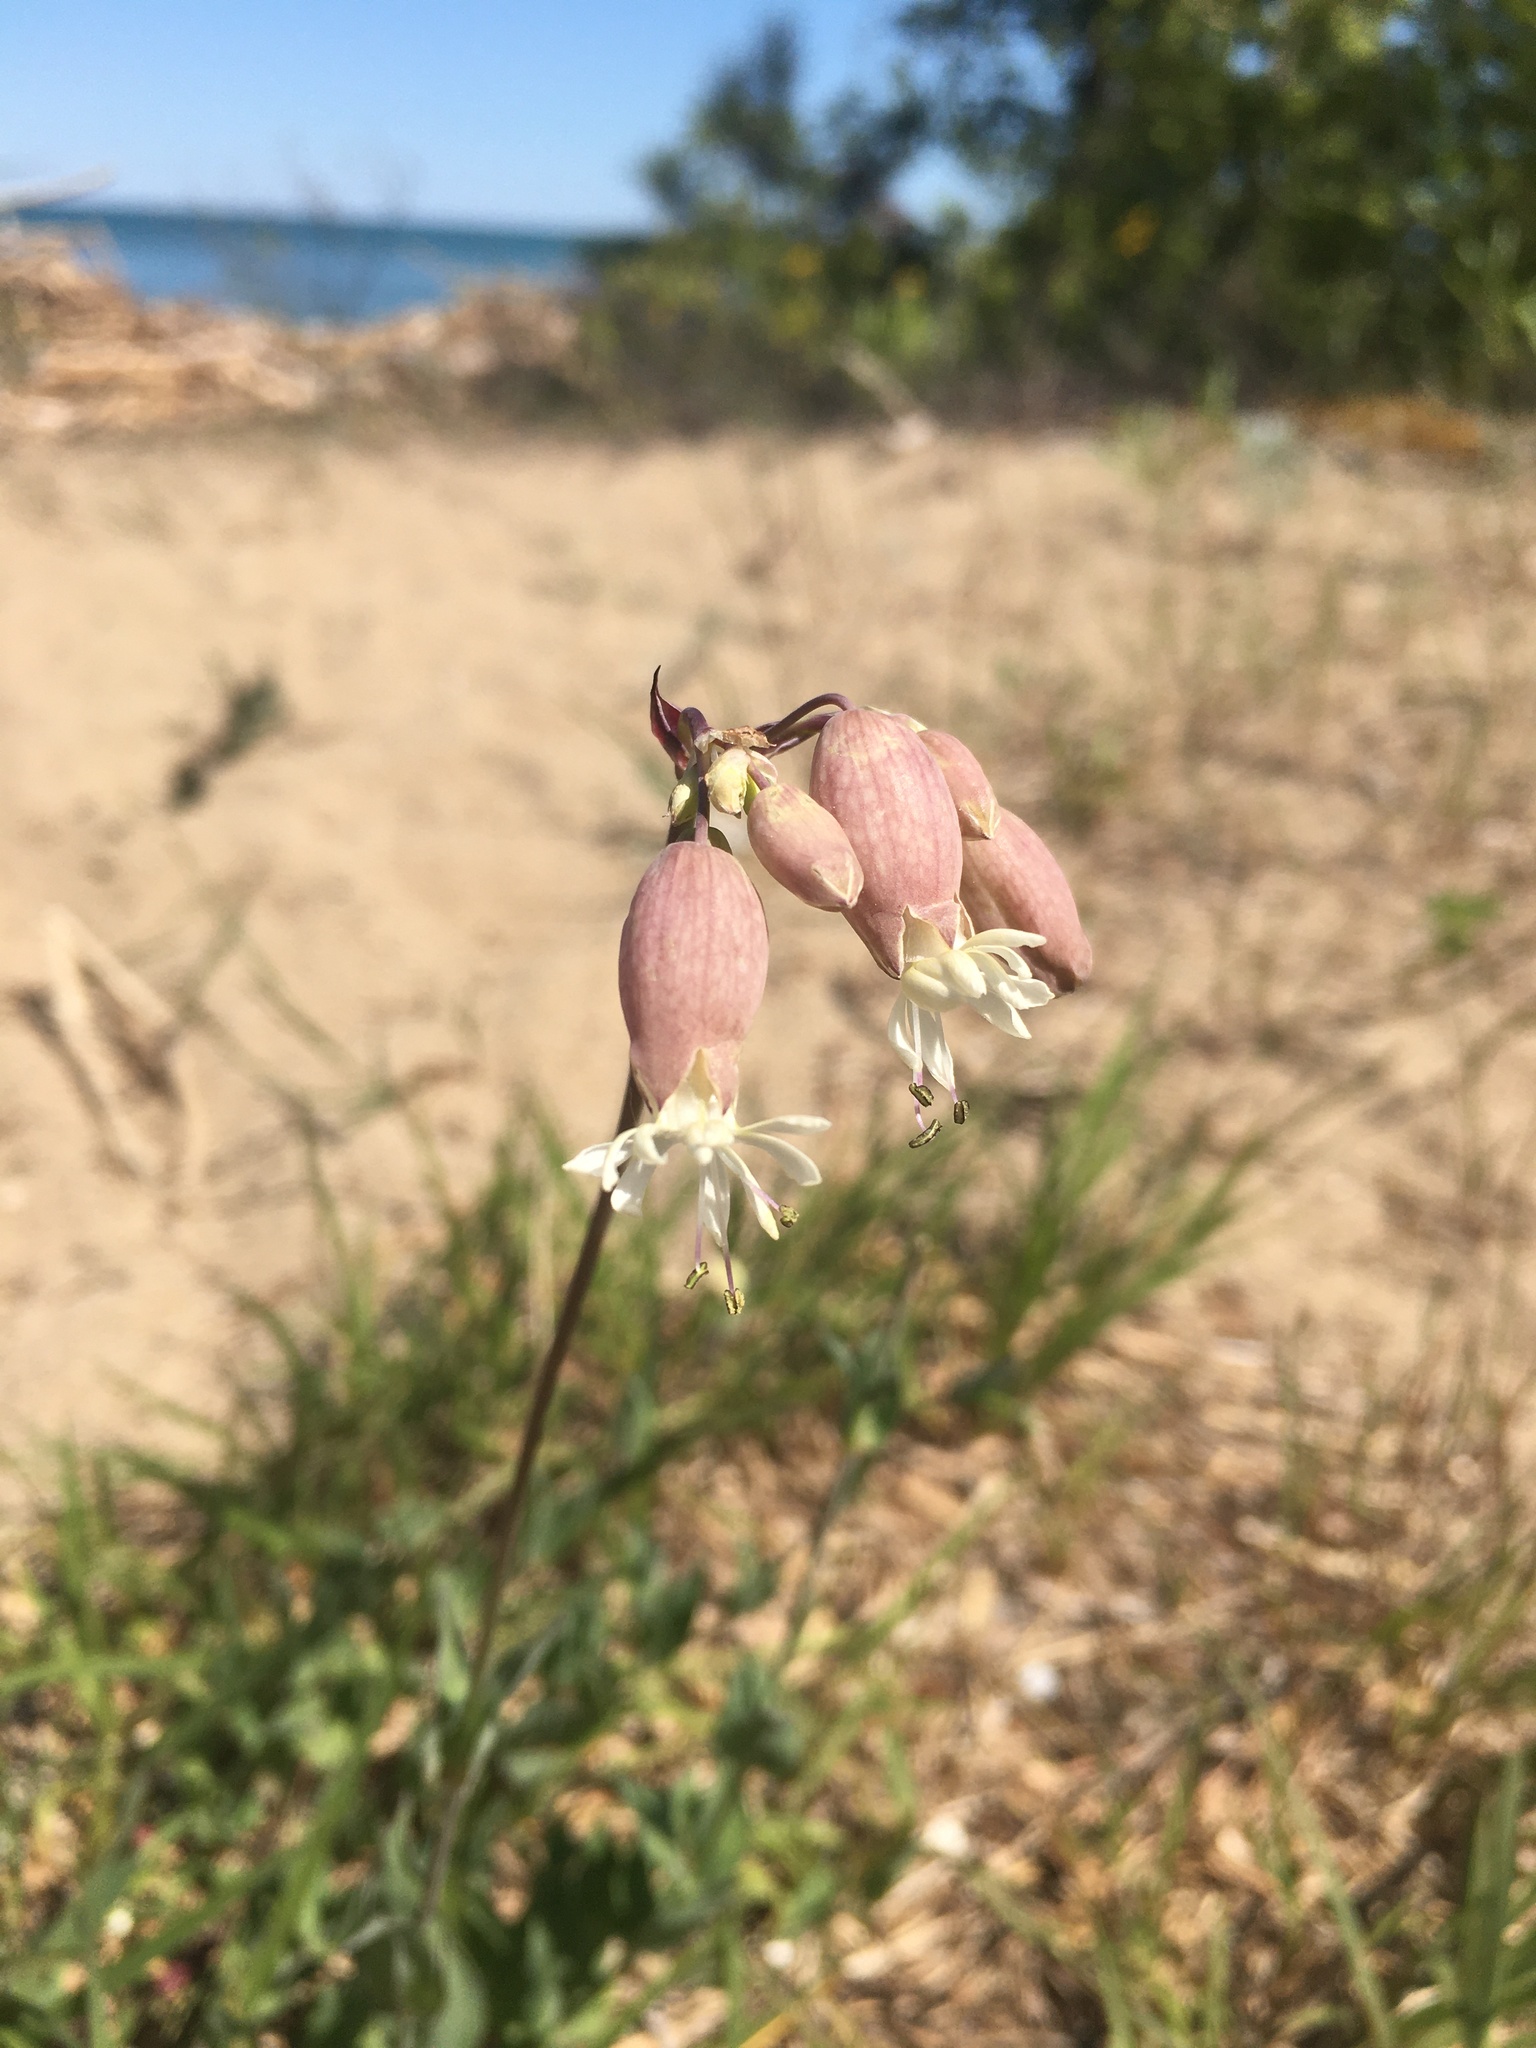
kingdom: Plantae
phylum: Tracheophyta
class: Magnoliopsida
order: Caryophyllales
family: Caryophyllaceae
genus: Silene
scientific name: Silene vulgaris
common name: Bladder campion
